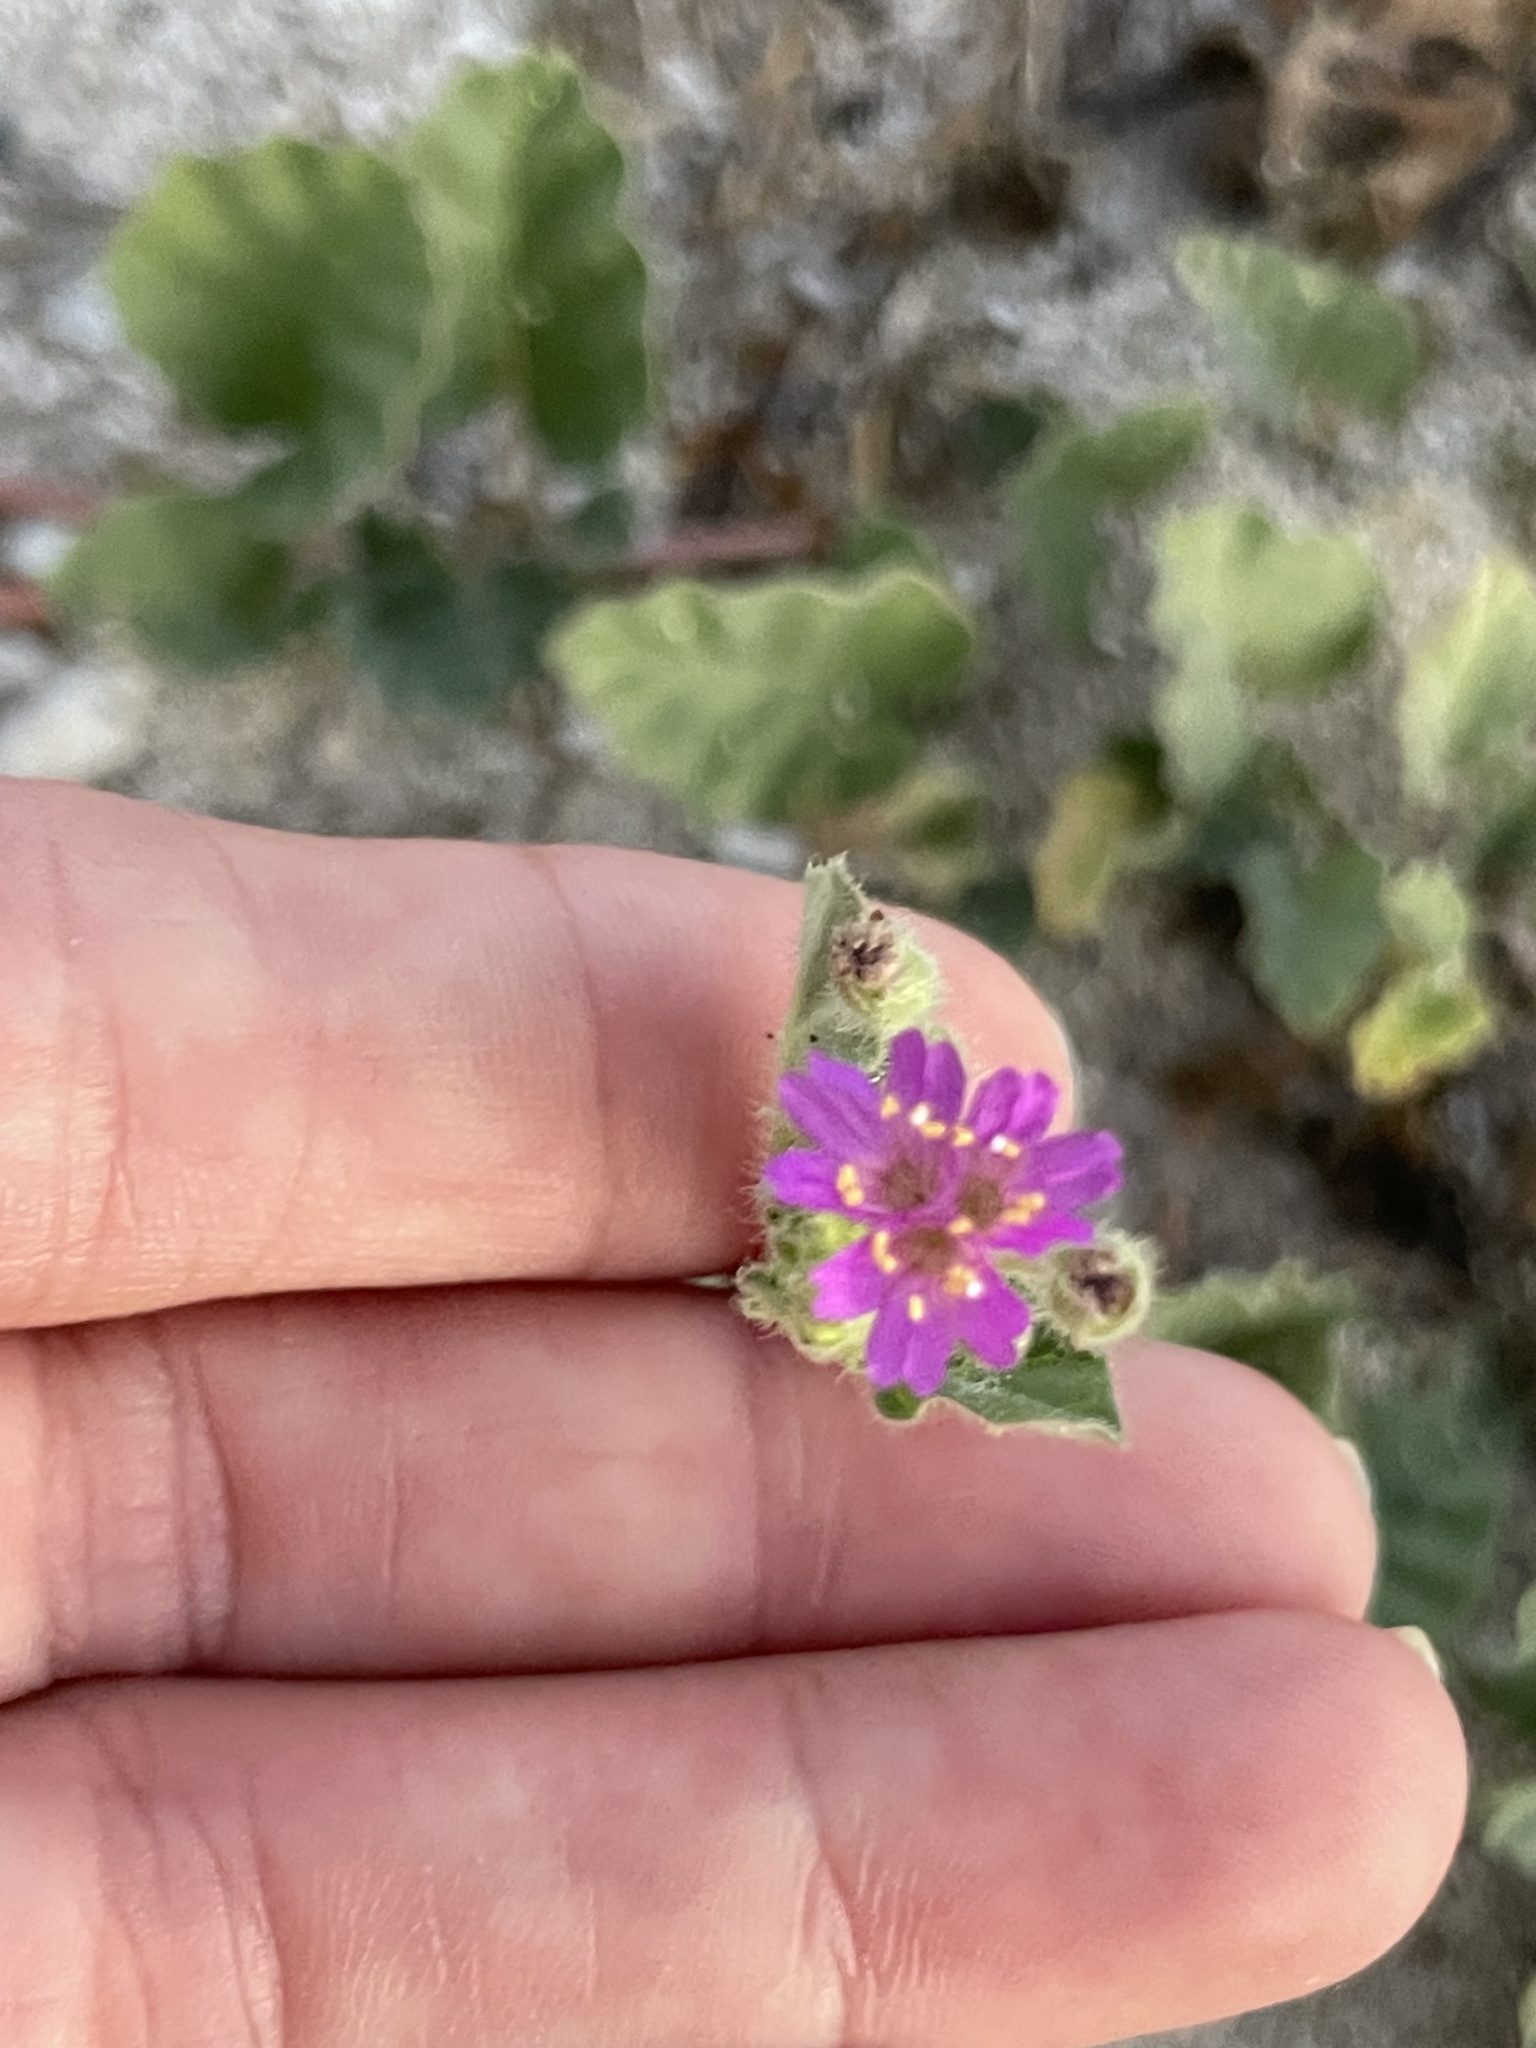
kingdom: Plantae
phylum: Tracheophyta
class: Magnoliopsida
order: Caryophyllales
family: Nyctaginaceae
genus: Allionia
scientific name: Allionia incarnata
